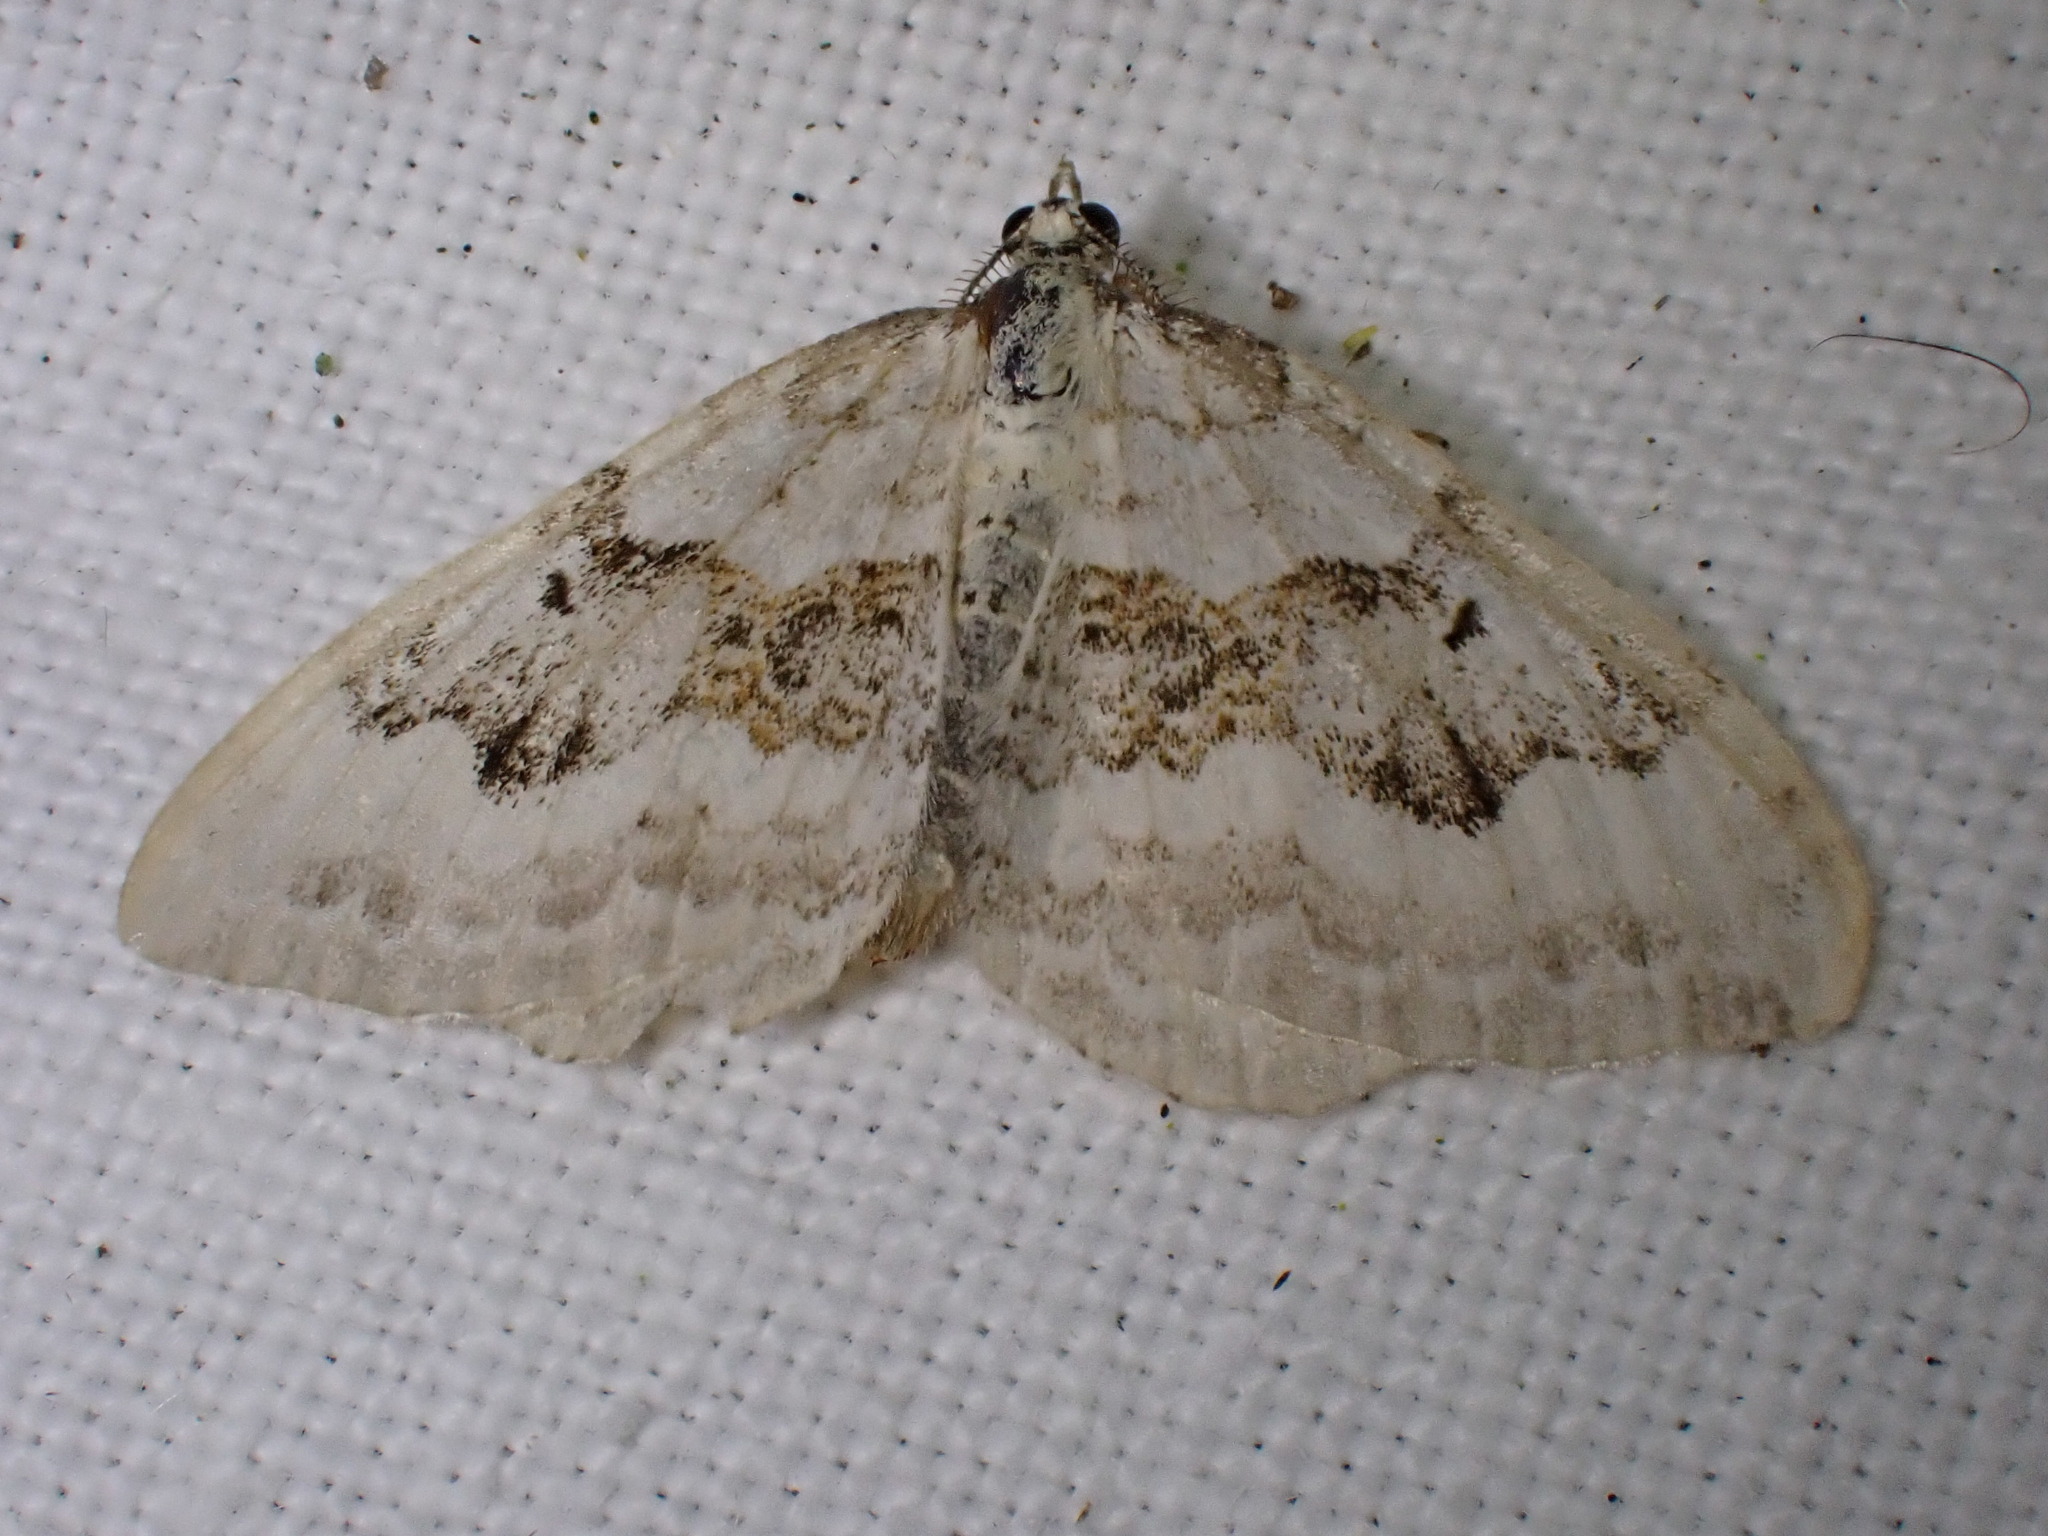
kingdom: Animalia
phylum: Arthropoda
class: Insecta
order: Lepidoptera
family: Geometridae
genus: Xanthorhoe
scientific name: Xanthorhoe montanata
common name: Silver-ground carpet
